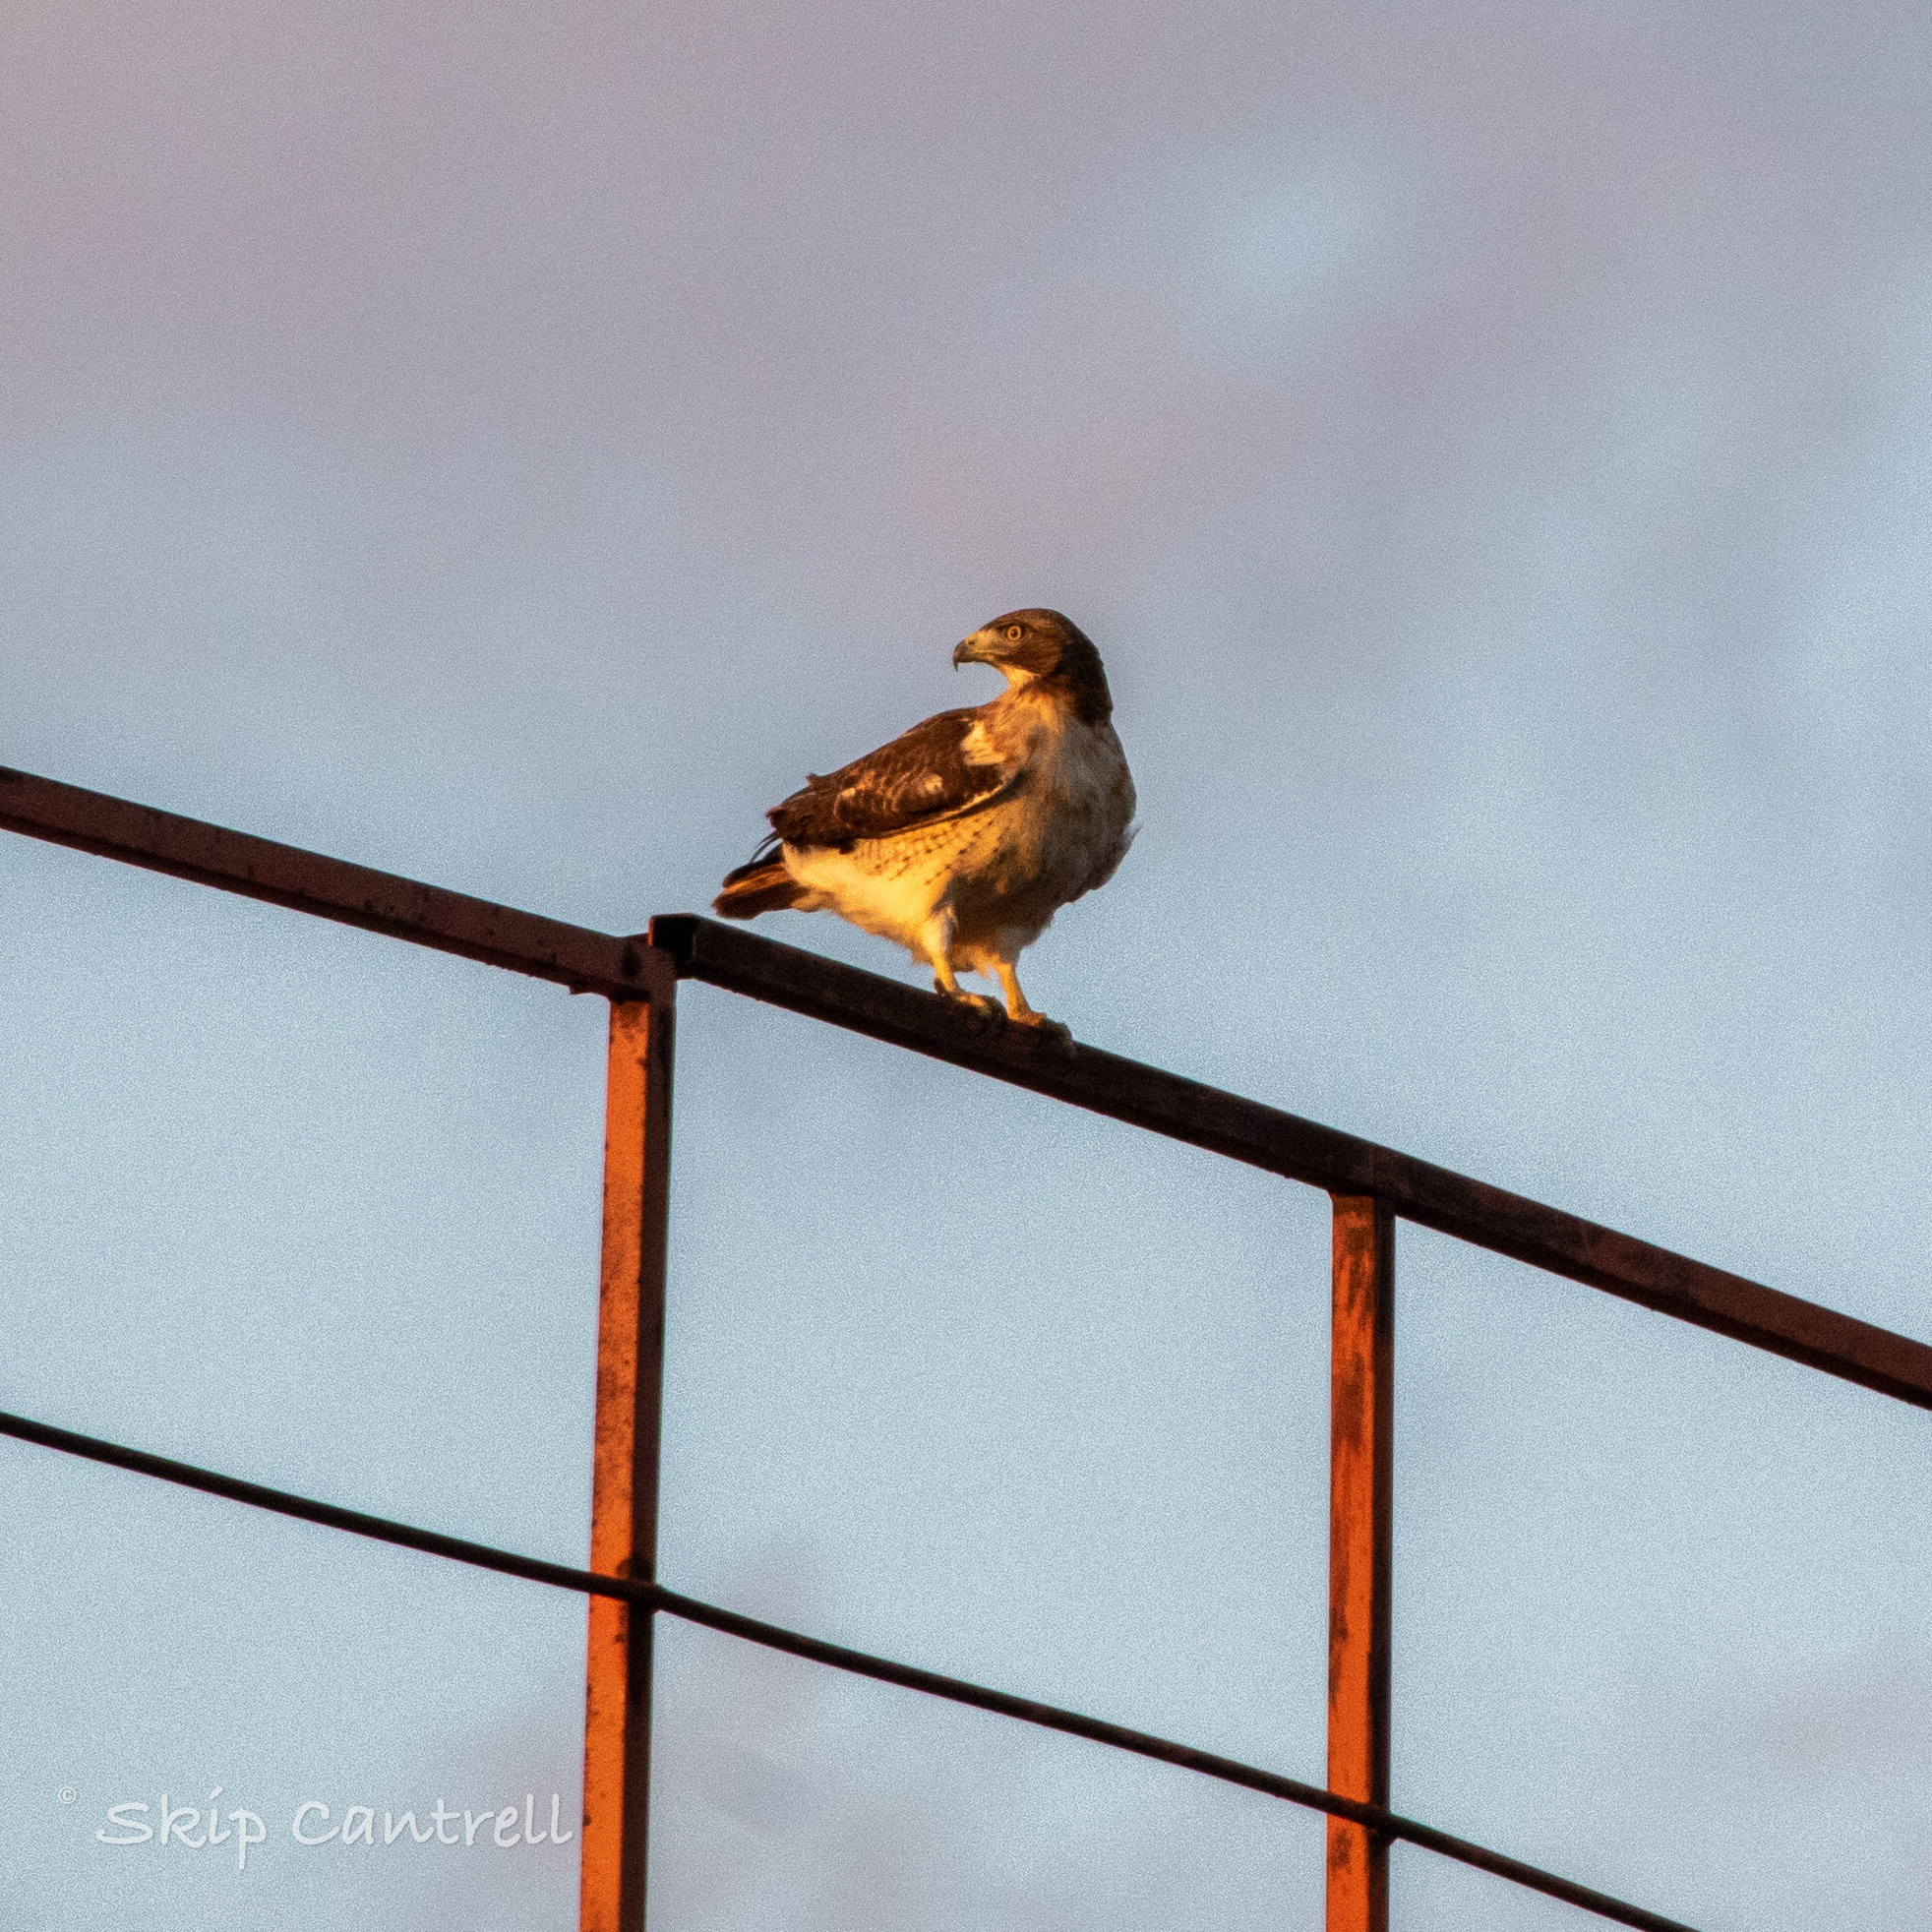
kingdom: Animalia
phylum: Chordata
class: Aves
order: Accipitriformes
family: Accipitridae
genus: Buteo
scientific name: Buteo jamaicensis
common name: Red-tailed hawk
